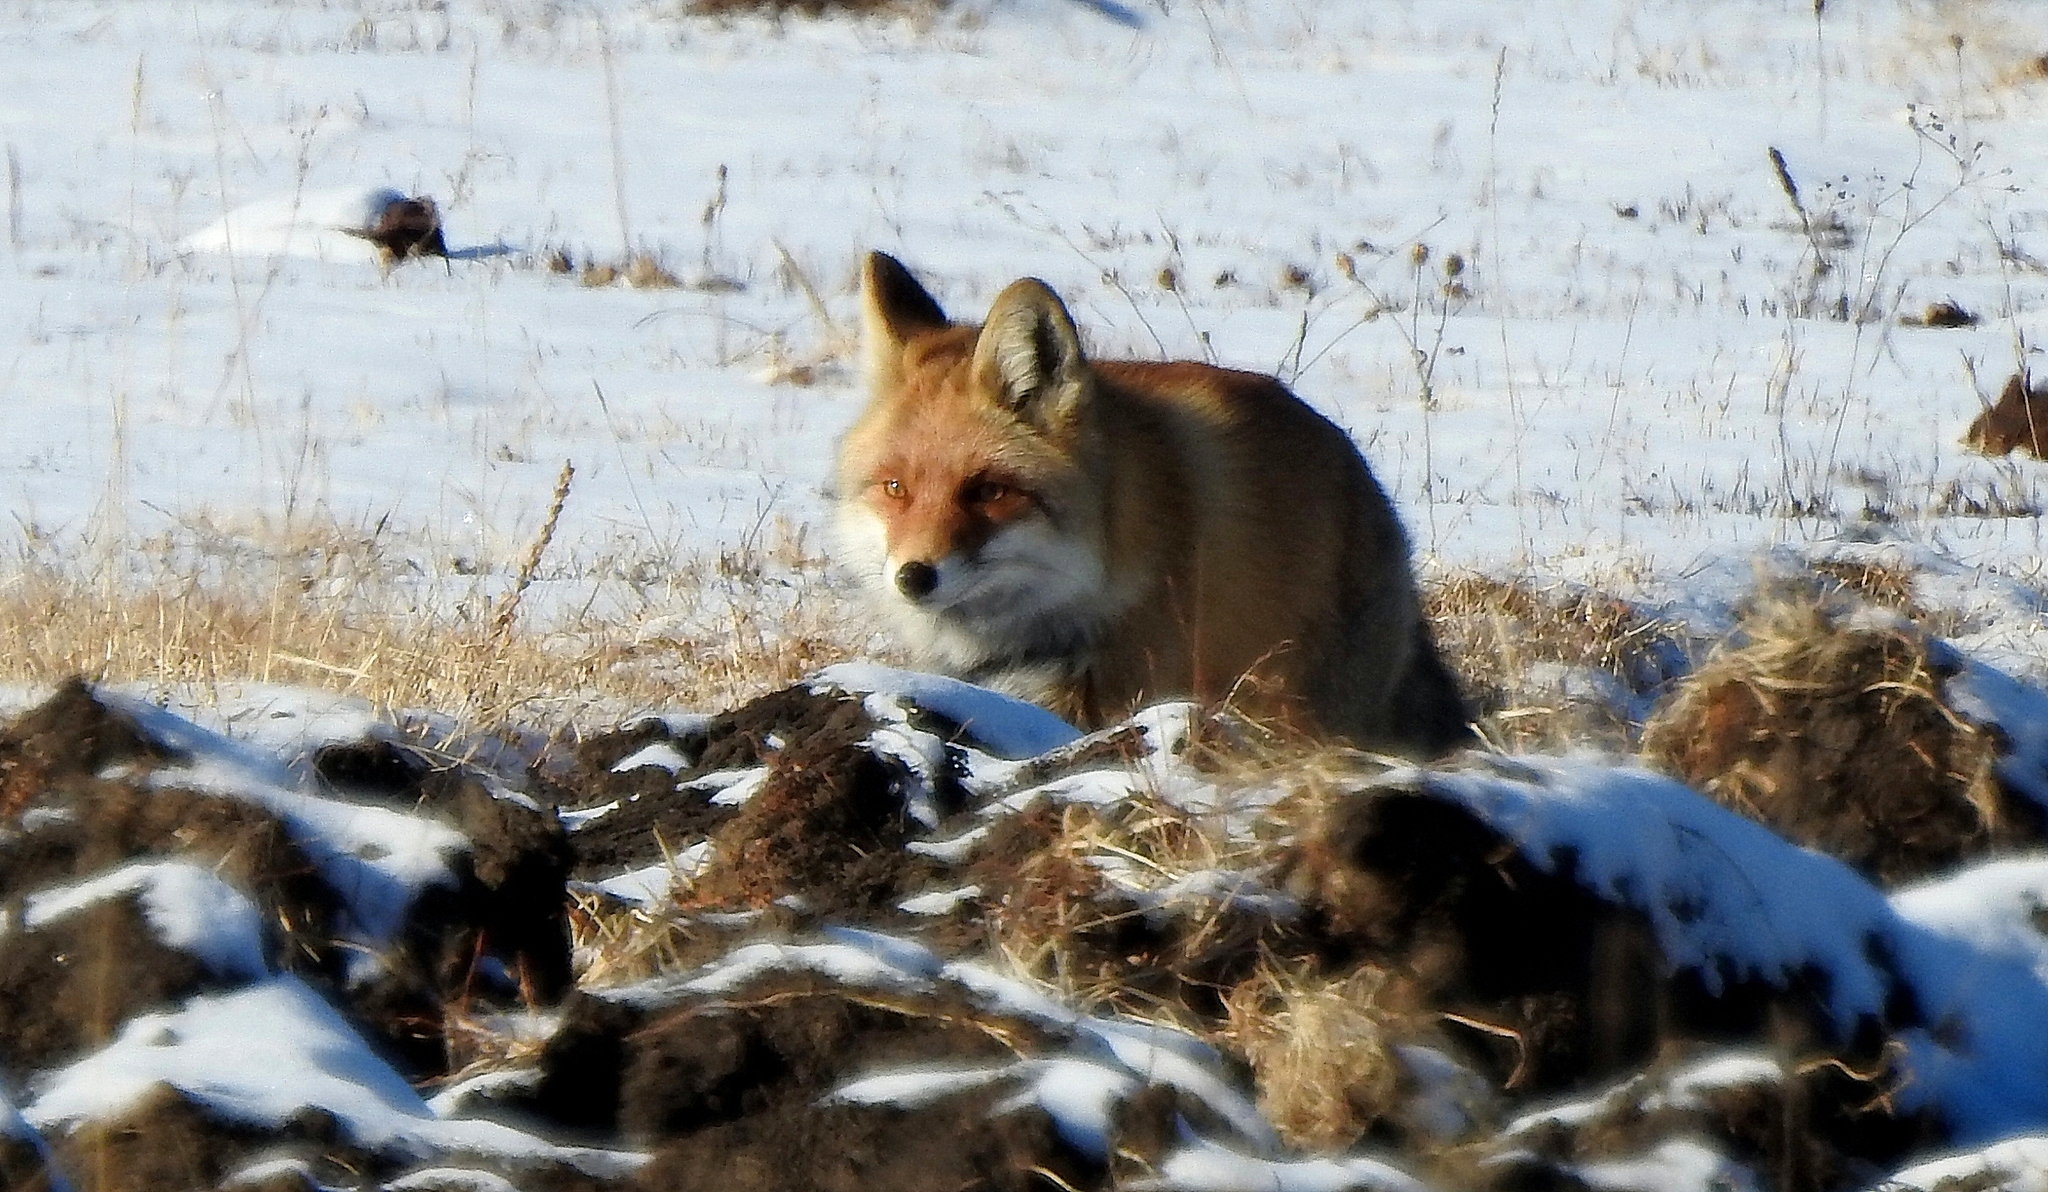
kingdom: Animalia
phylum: Chordata
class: Mammalia
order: Carnivora
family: Canidae
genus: Vulpes
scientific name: Vulpes vulpes
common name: Red fox
